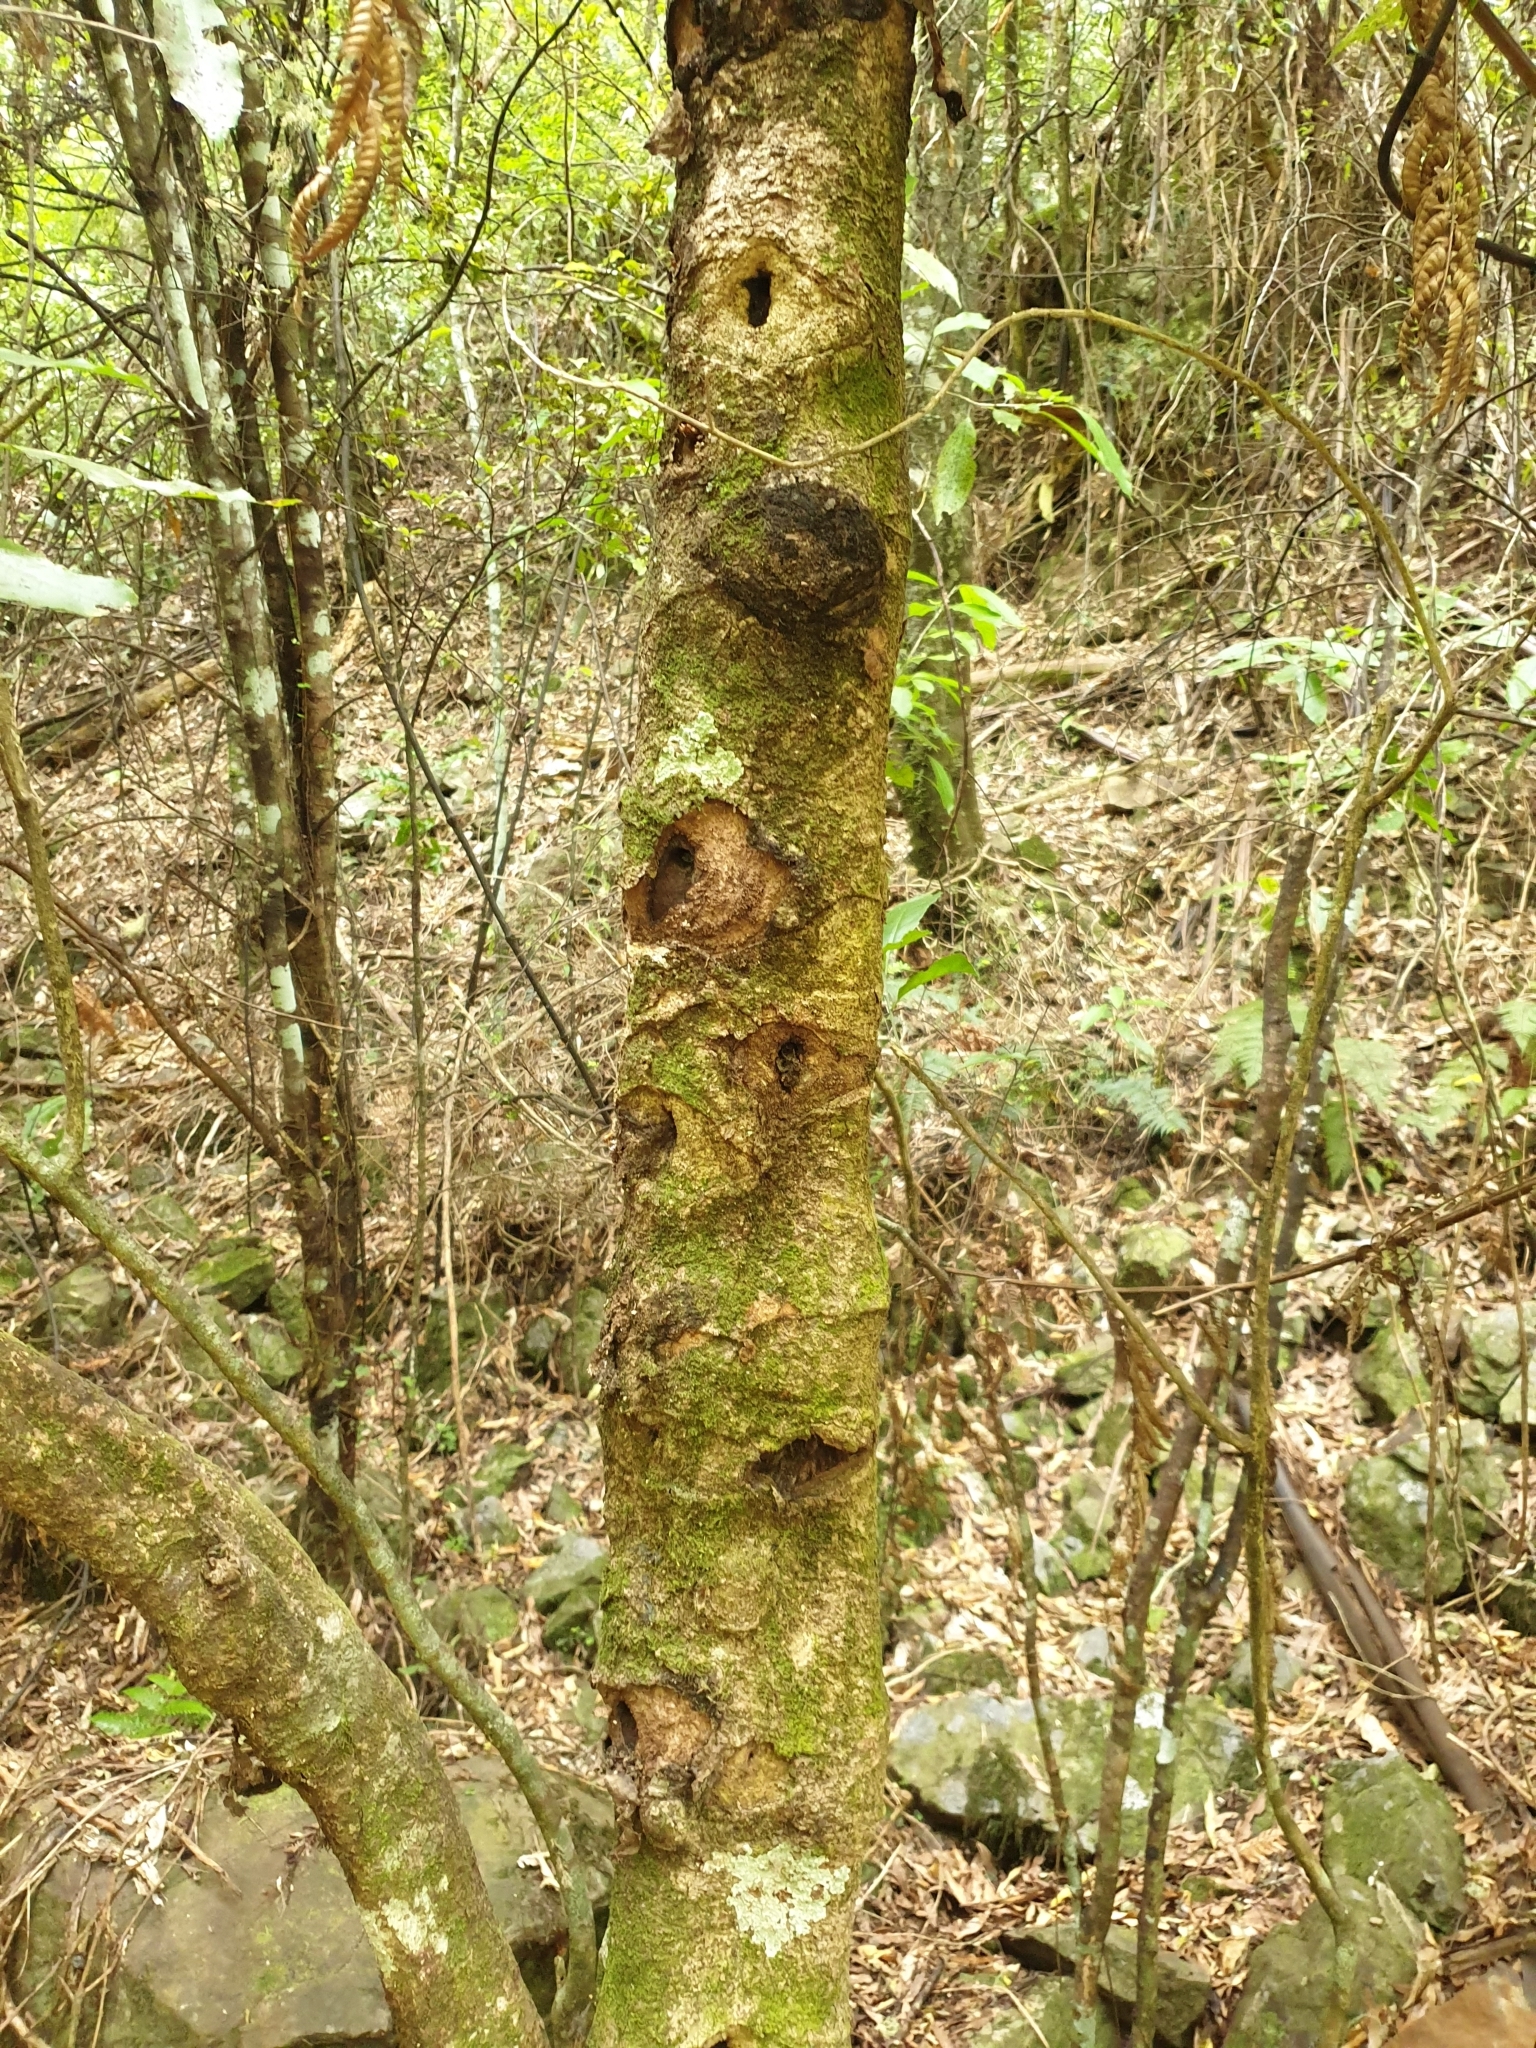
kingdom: Animalia
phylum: Arthropoda
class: Insecta
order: Lepidoptera
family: Hepialidae
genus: Aenetus
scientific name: Aenetus virescens
